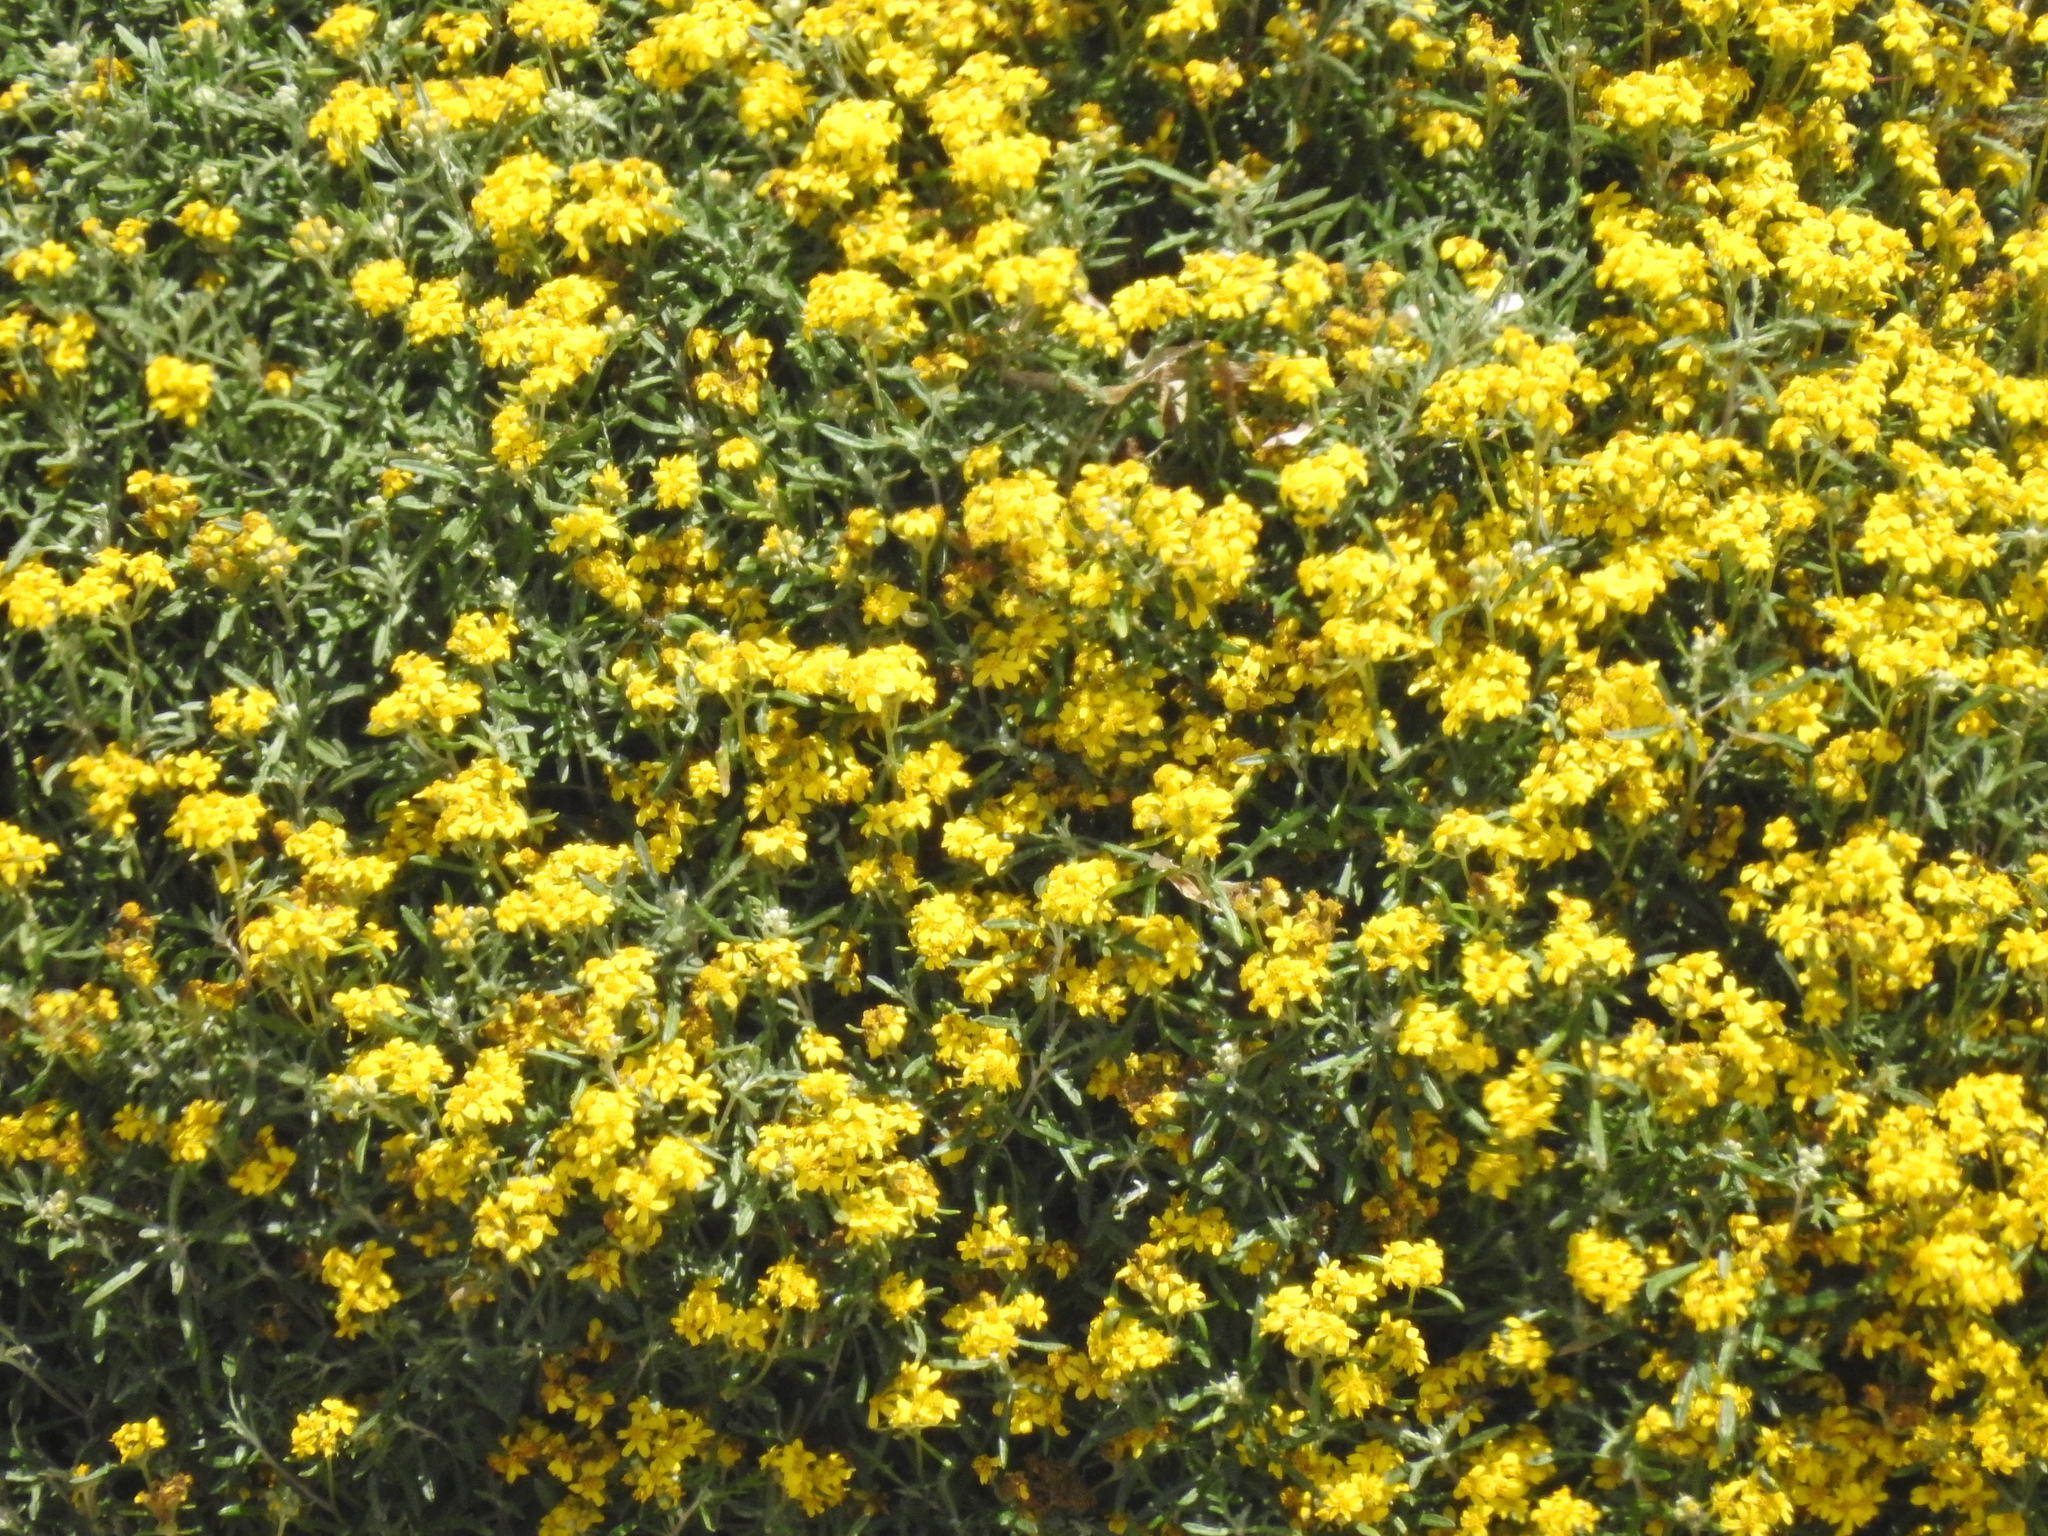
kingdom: Plantae
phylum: Tracheophyta
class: Magnoliopsida
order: Asterales
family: Asteraceae
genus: Eriophyllum
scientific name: Eriophyllum staechadifolium
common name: Lizardtail
